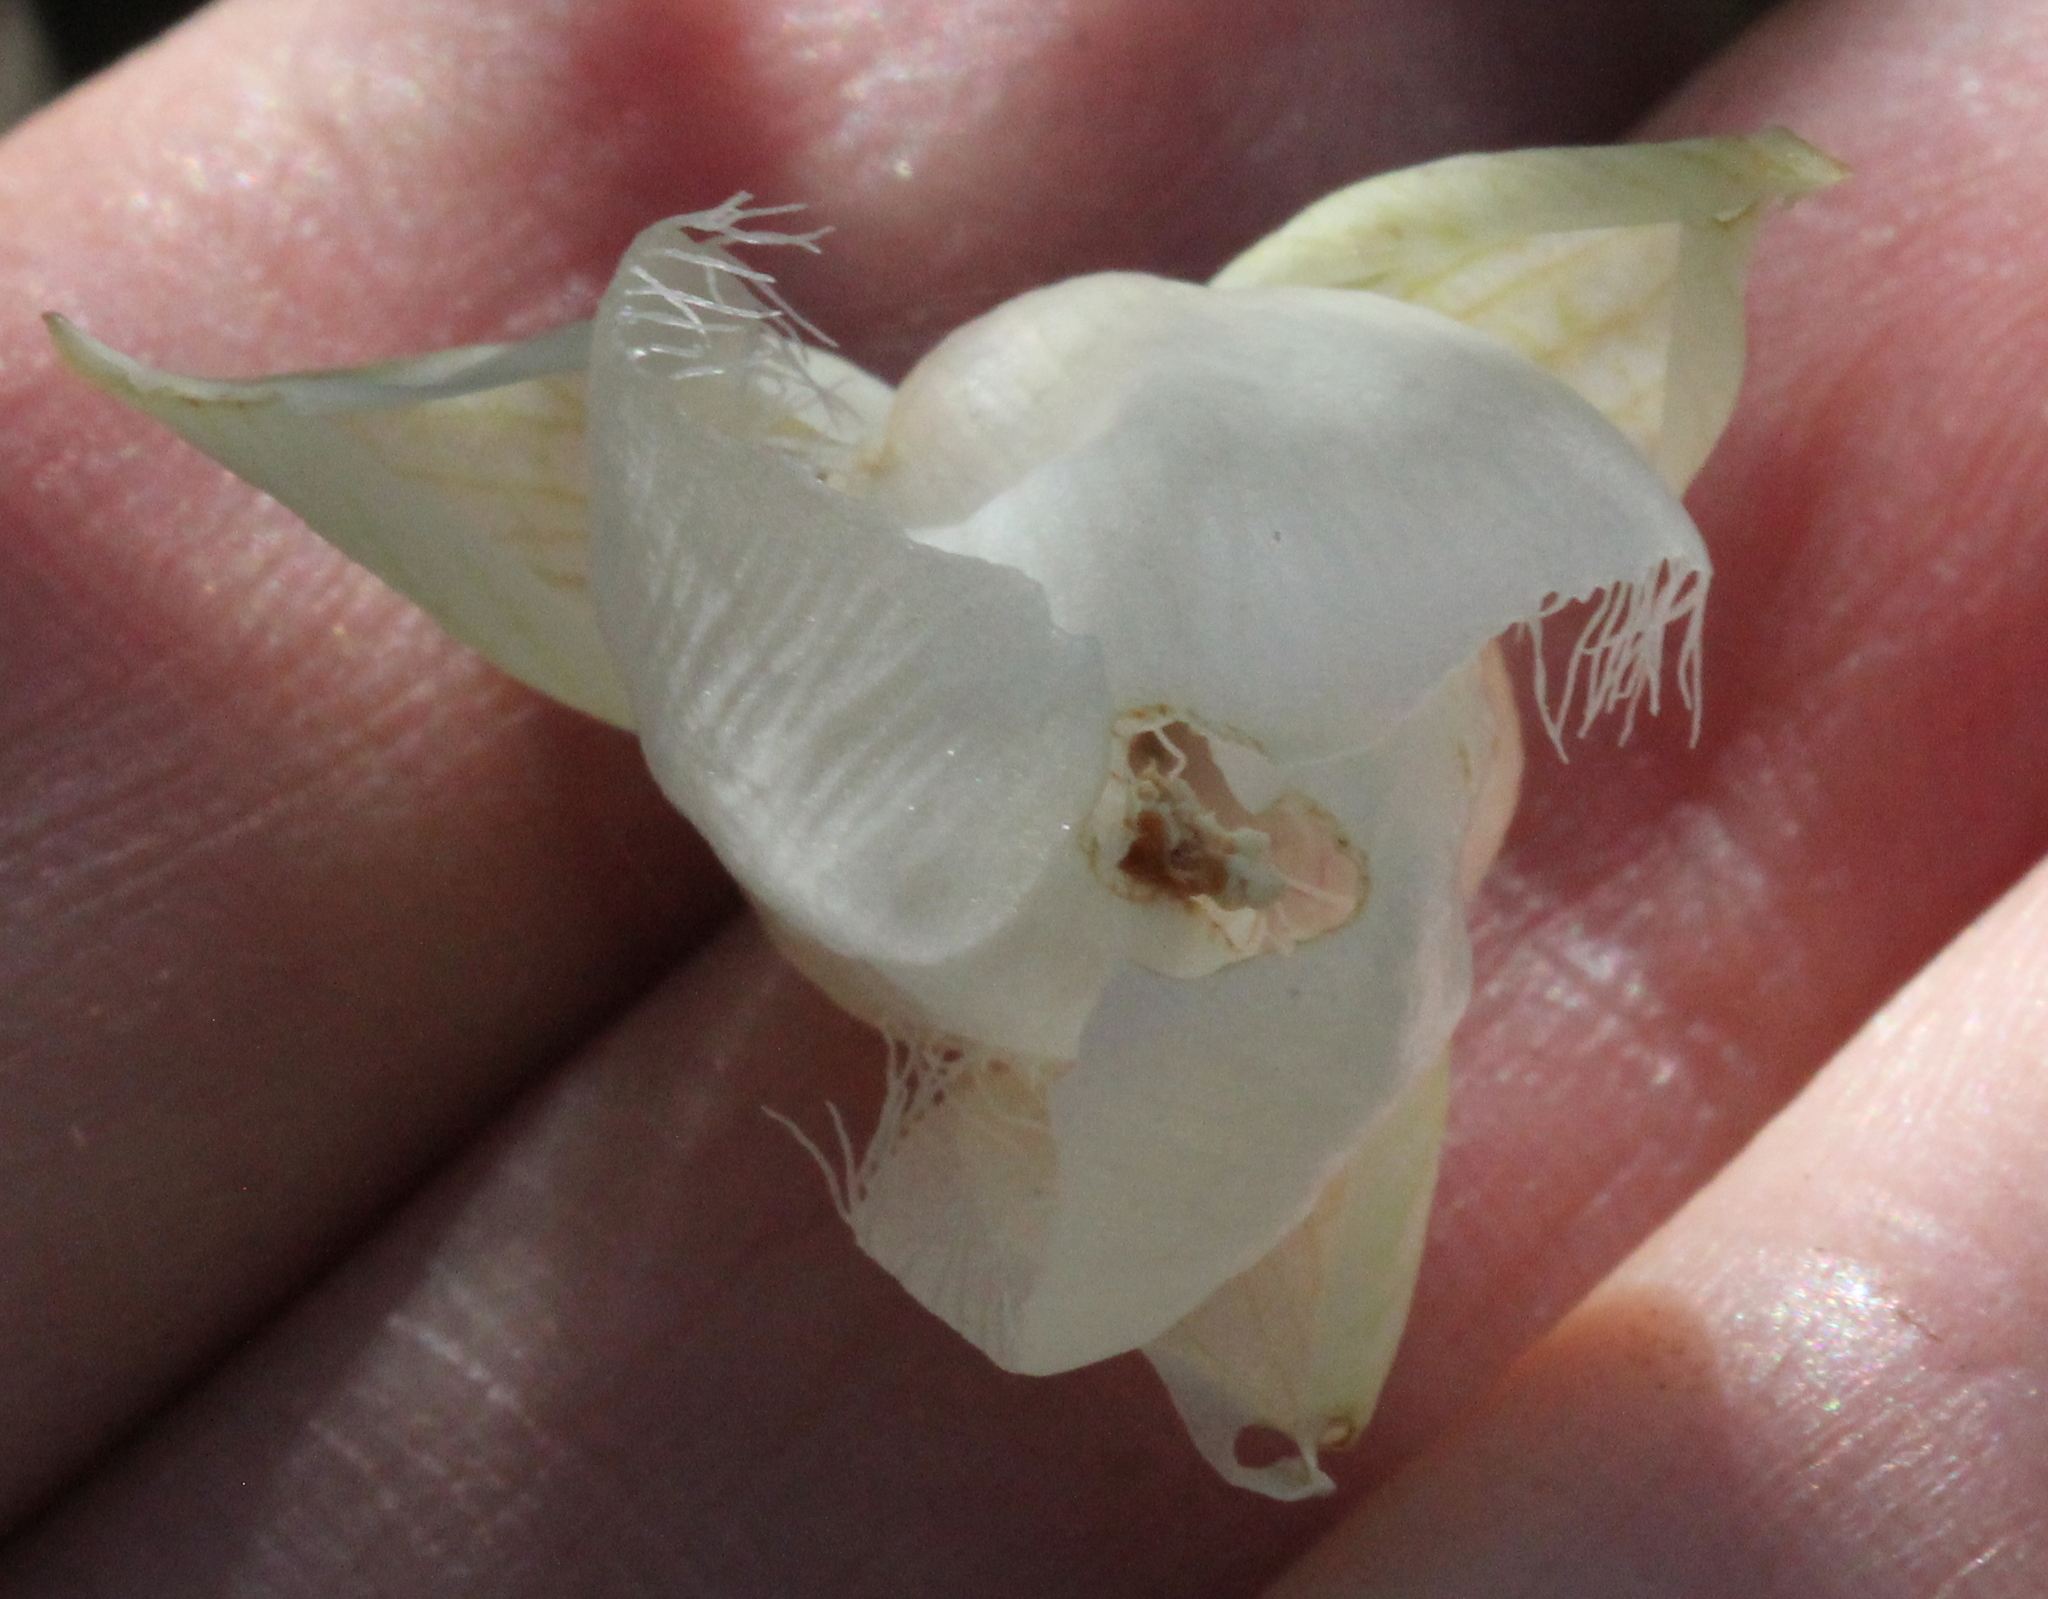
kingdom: Plantae
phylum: Tracheophyta
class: Liliopsida
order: Liliales
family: Liliaceae
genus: Calochortus
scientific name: Calochortus albus
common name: Fairy-lantern
